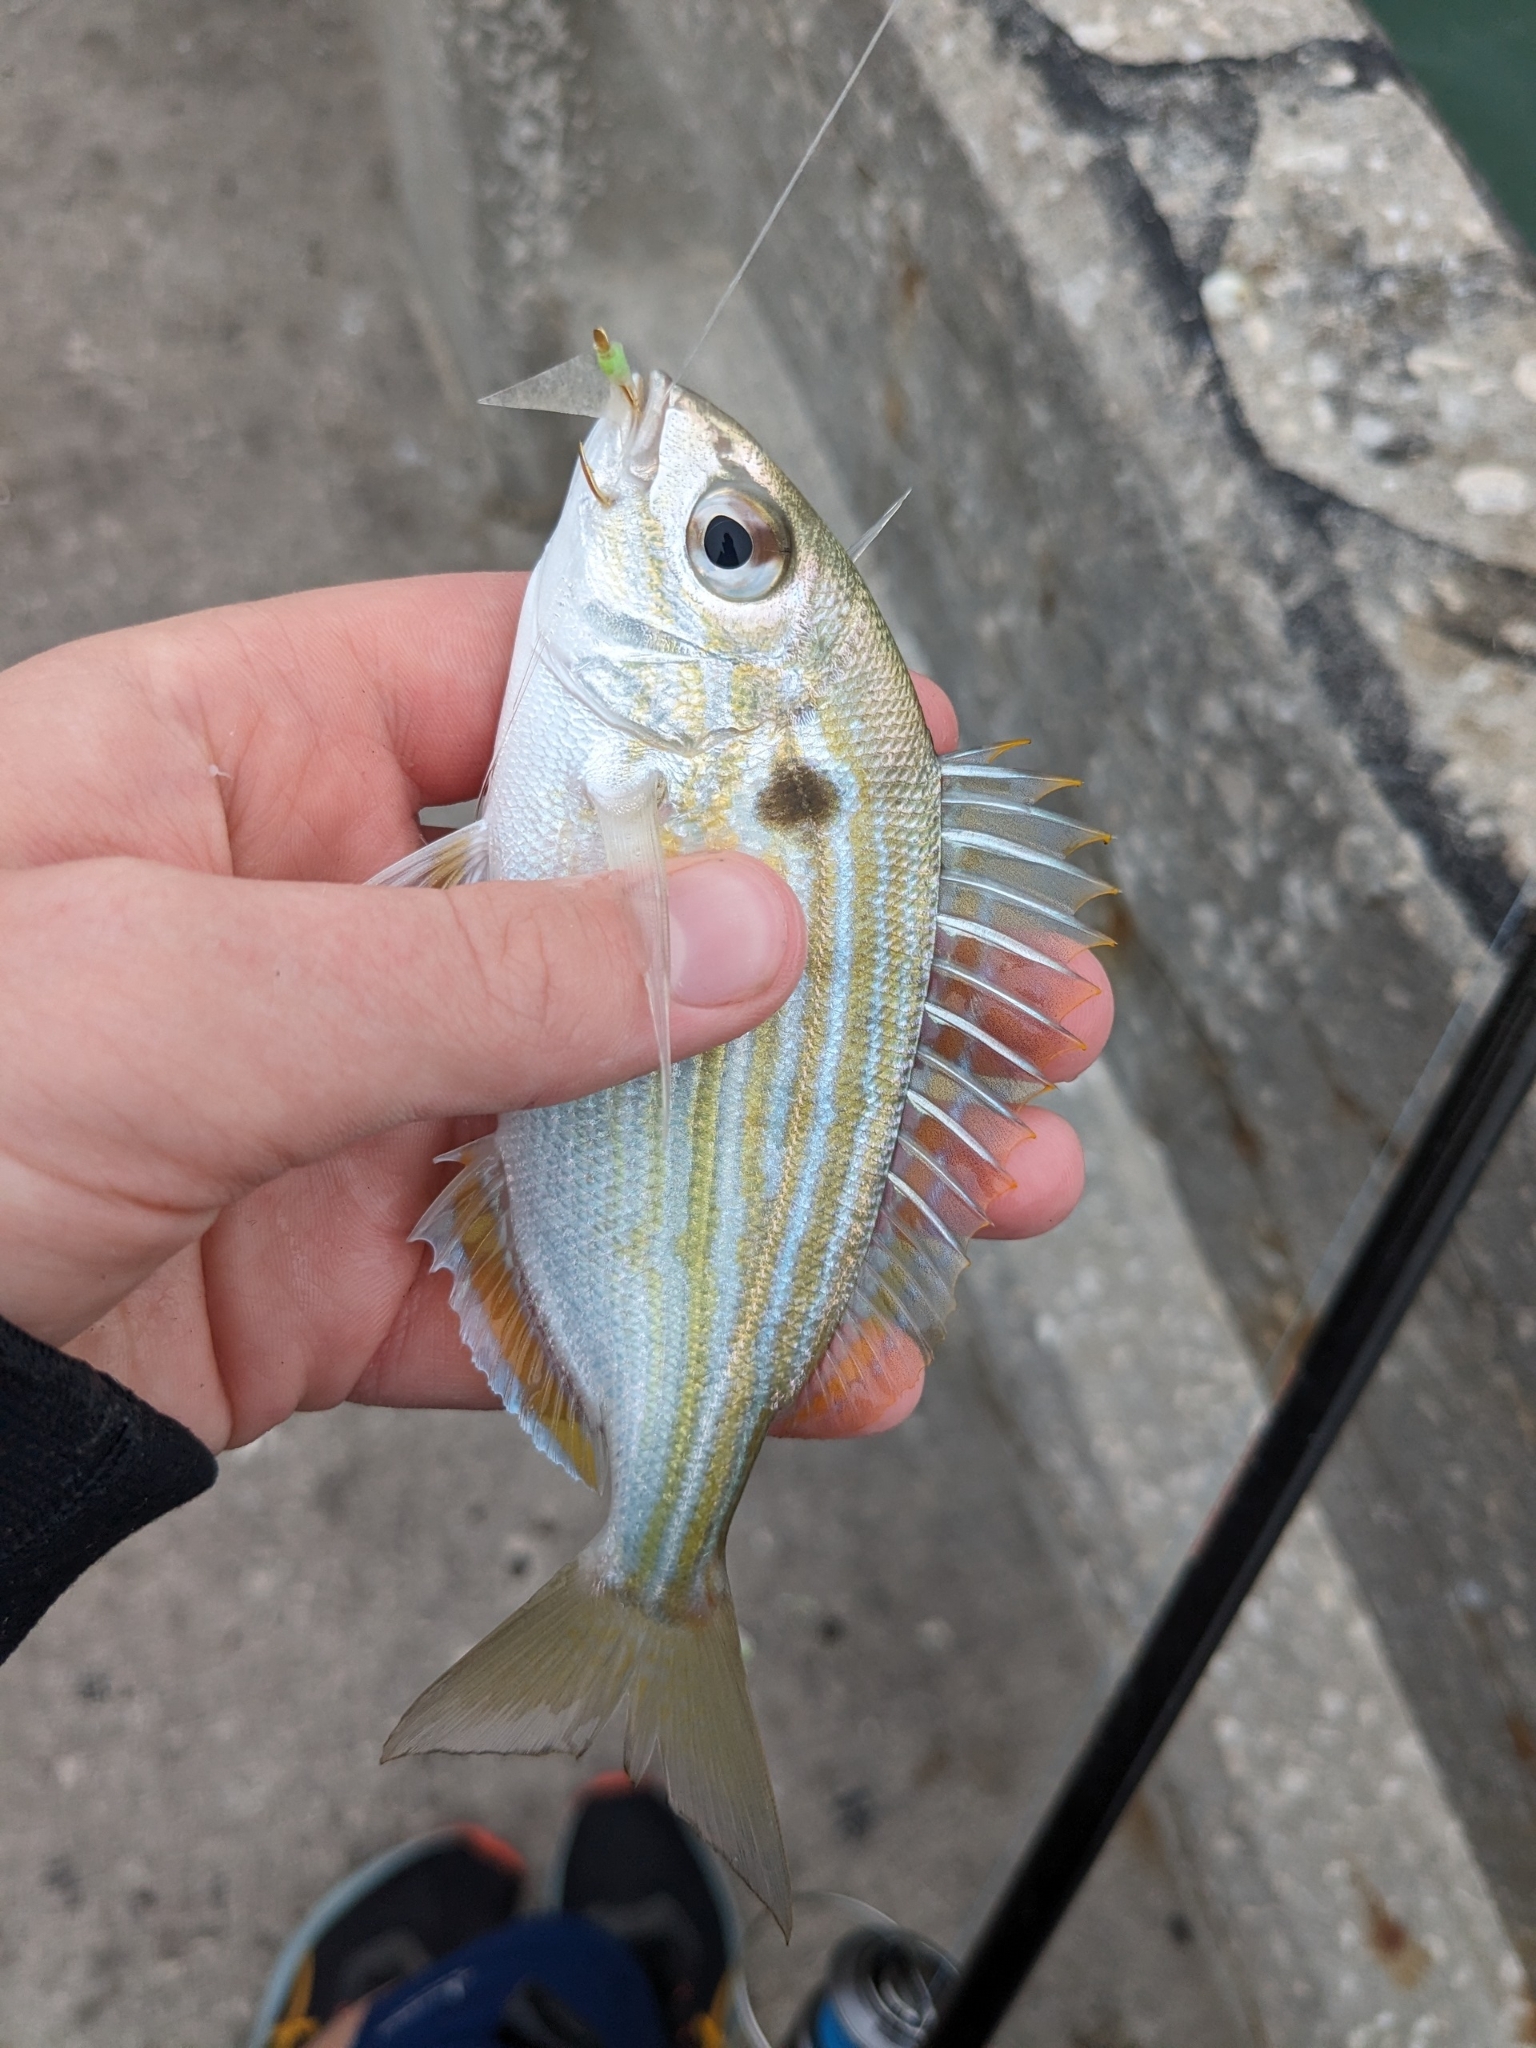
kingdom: Animalia
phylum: Chordata
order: Perciformes
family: Sparidae
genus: Lagodon
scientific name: Lagodon rhomboides
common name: Pinfish
